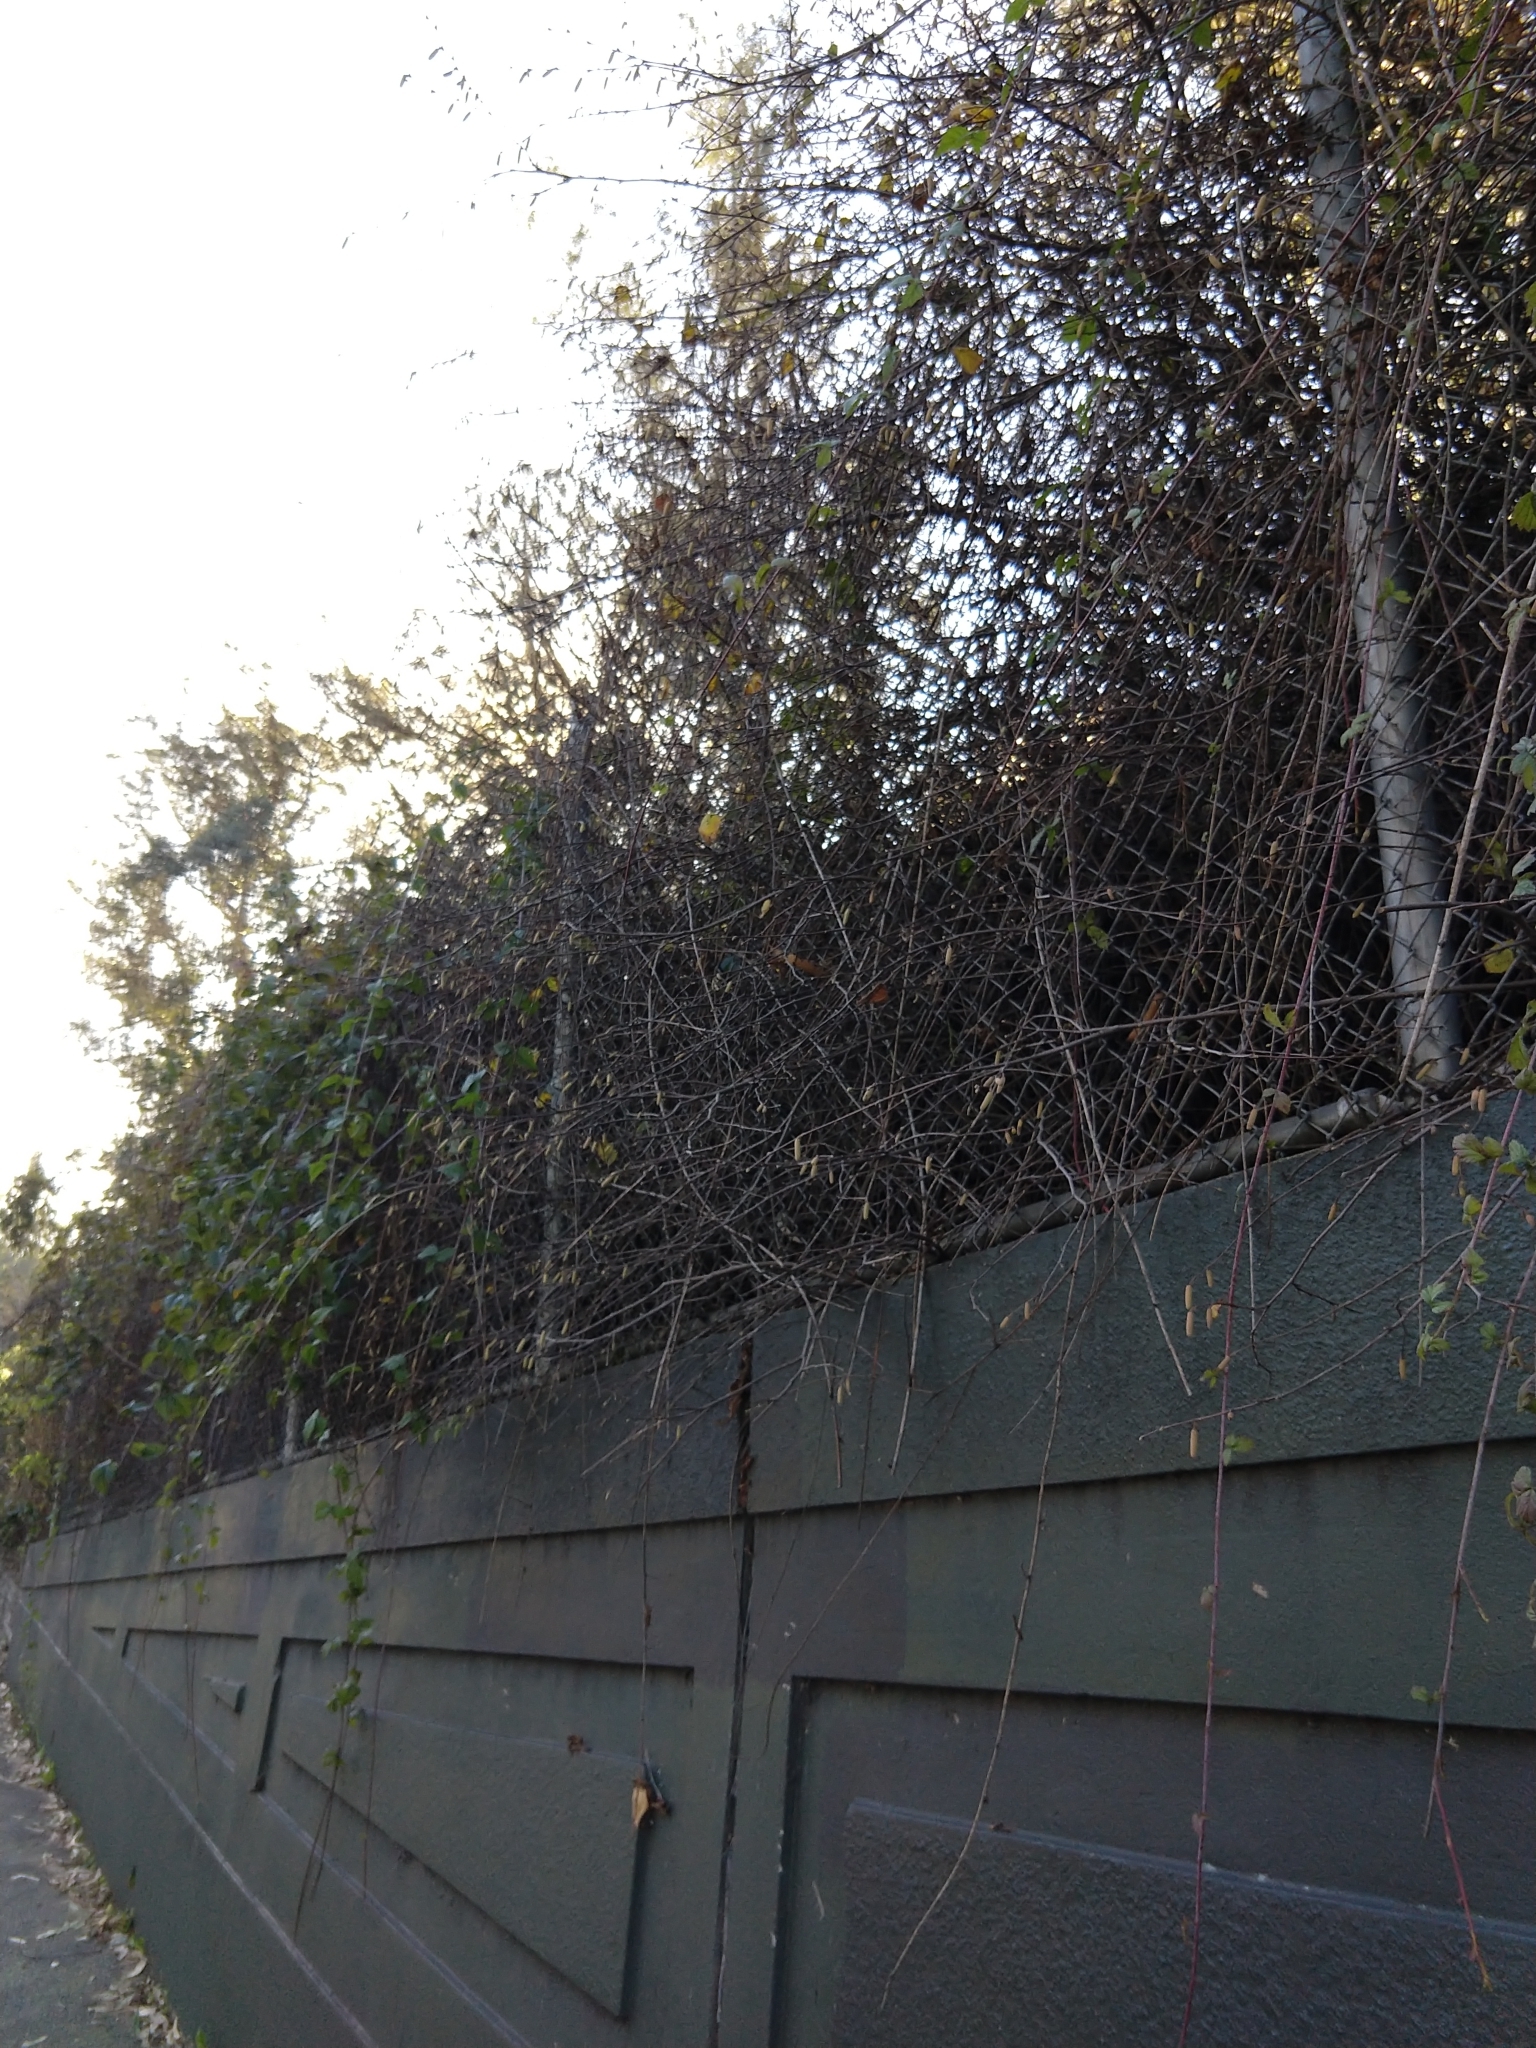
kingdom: Plantae
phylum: Tracheophyta
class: Magnoliopsida
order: Fagales
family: Betulaceae
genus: Corylus
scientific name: Corylus cornuta
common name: Beaked hazel
